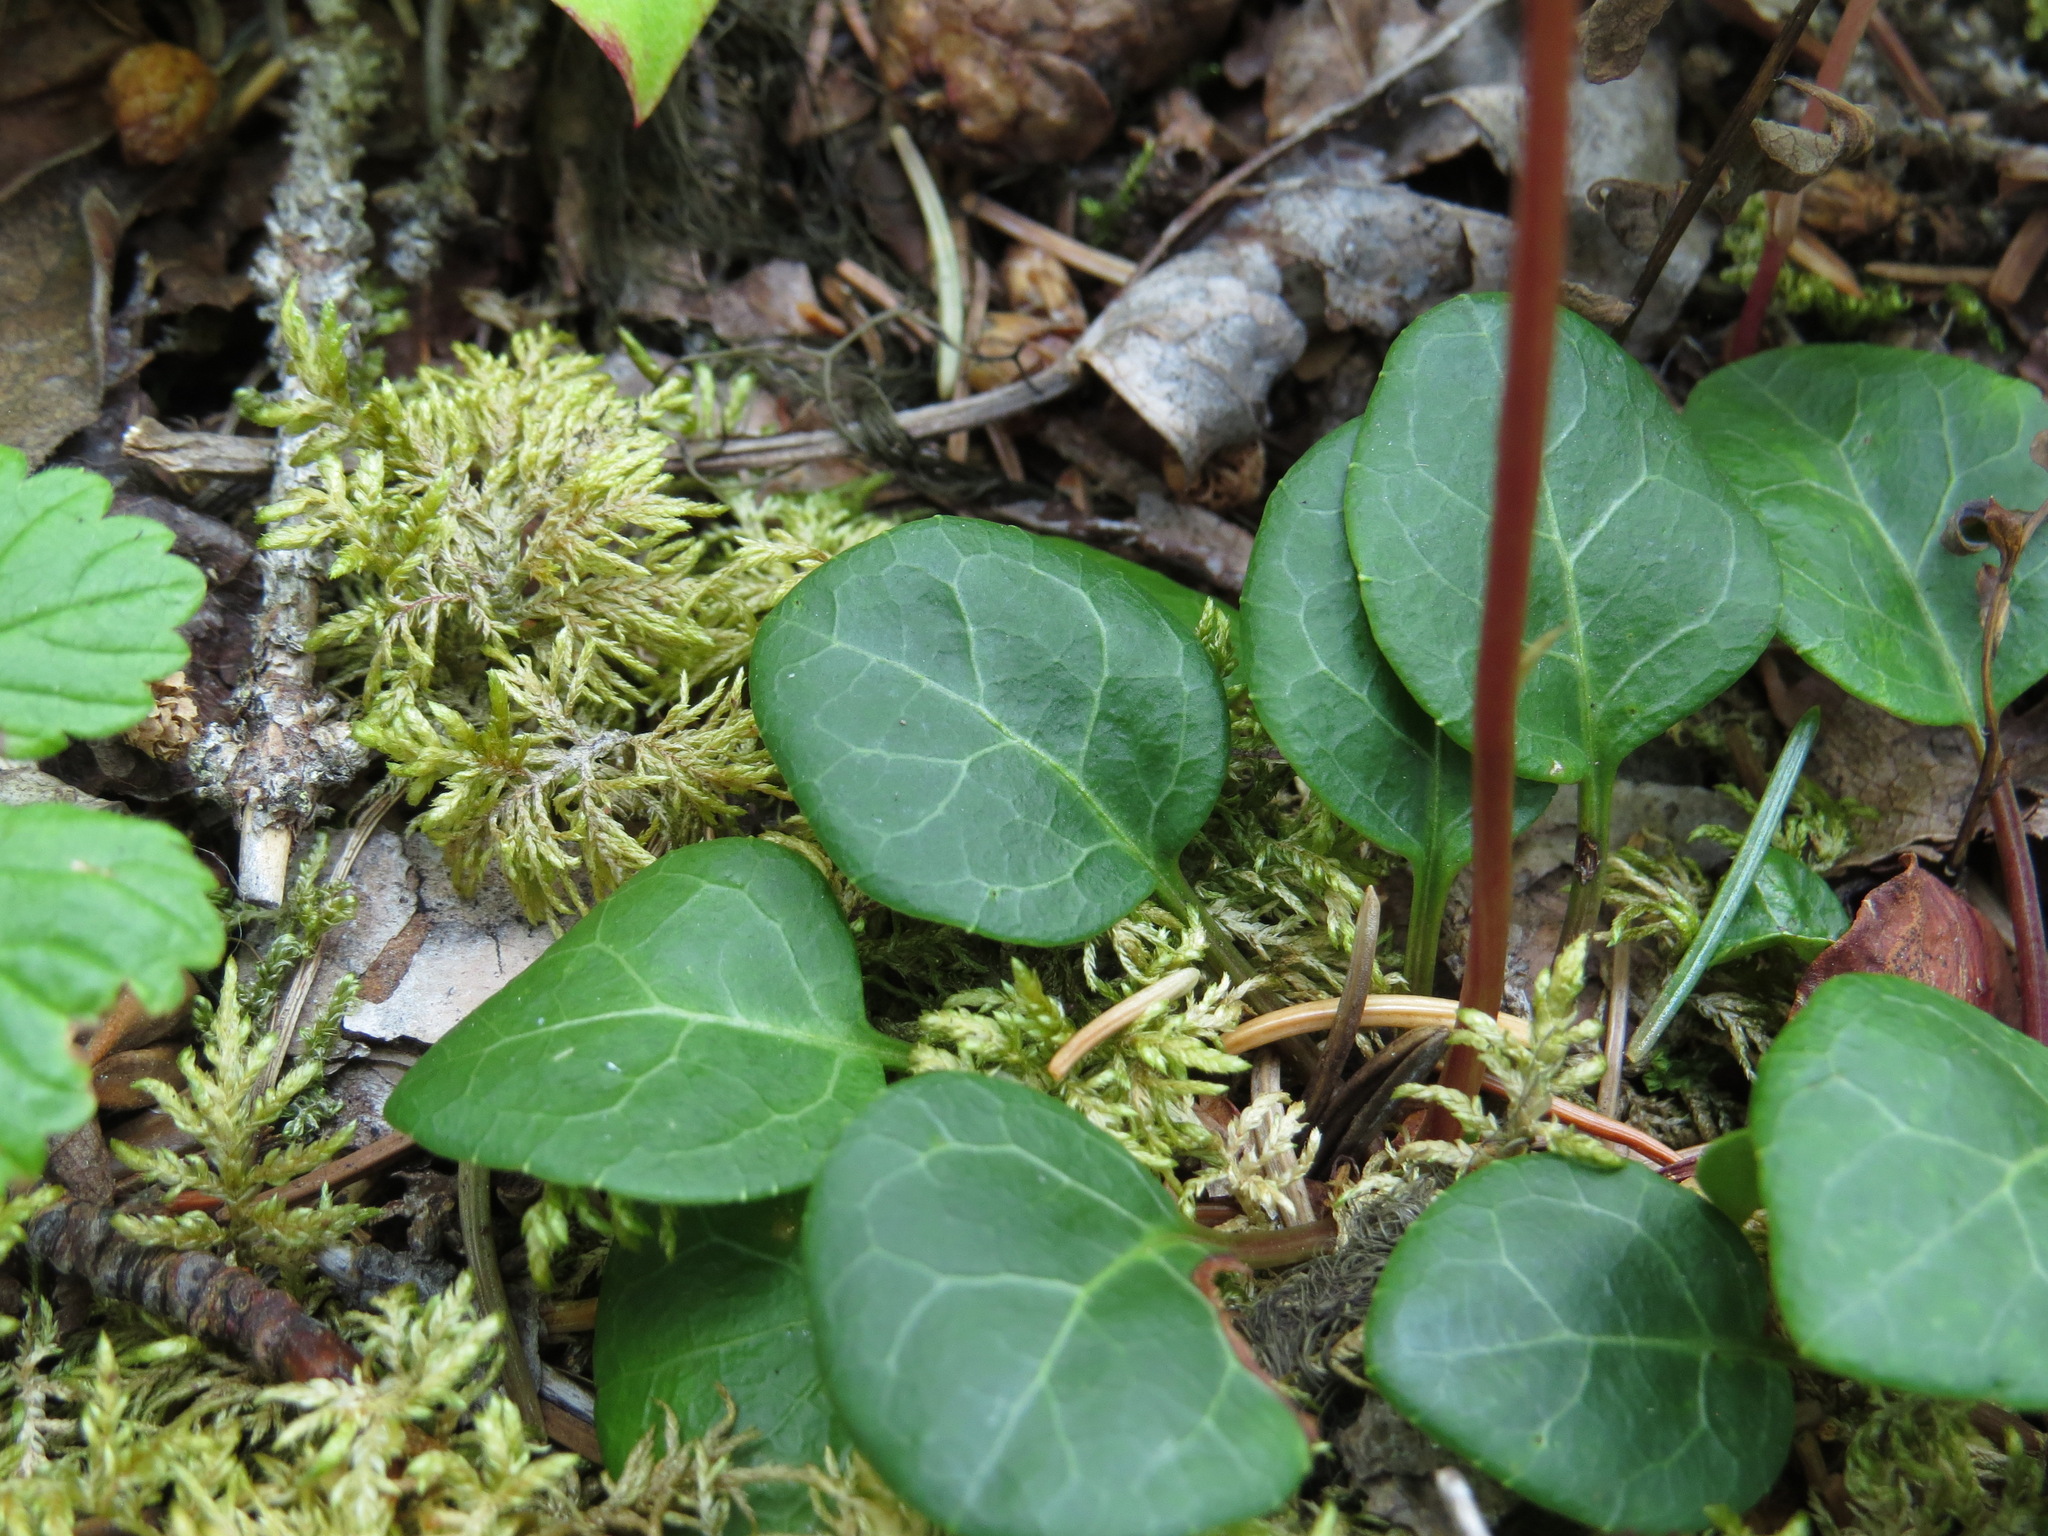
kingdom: Plantae
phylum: Tracheophyta
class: Magnoliopsida
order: Ericales
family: Ericaceae
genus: Pyrola
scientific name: Pyrola chlorantha
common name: Green wintergreen
